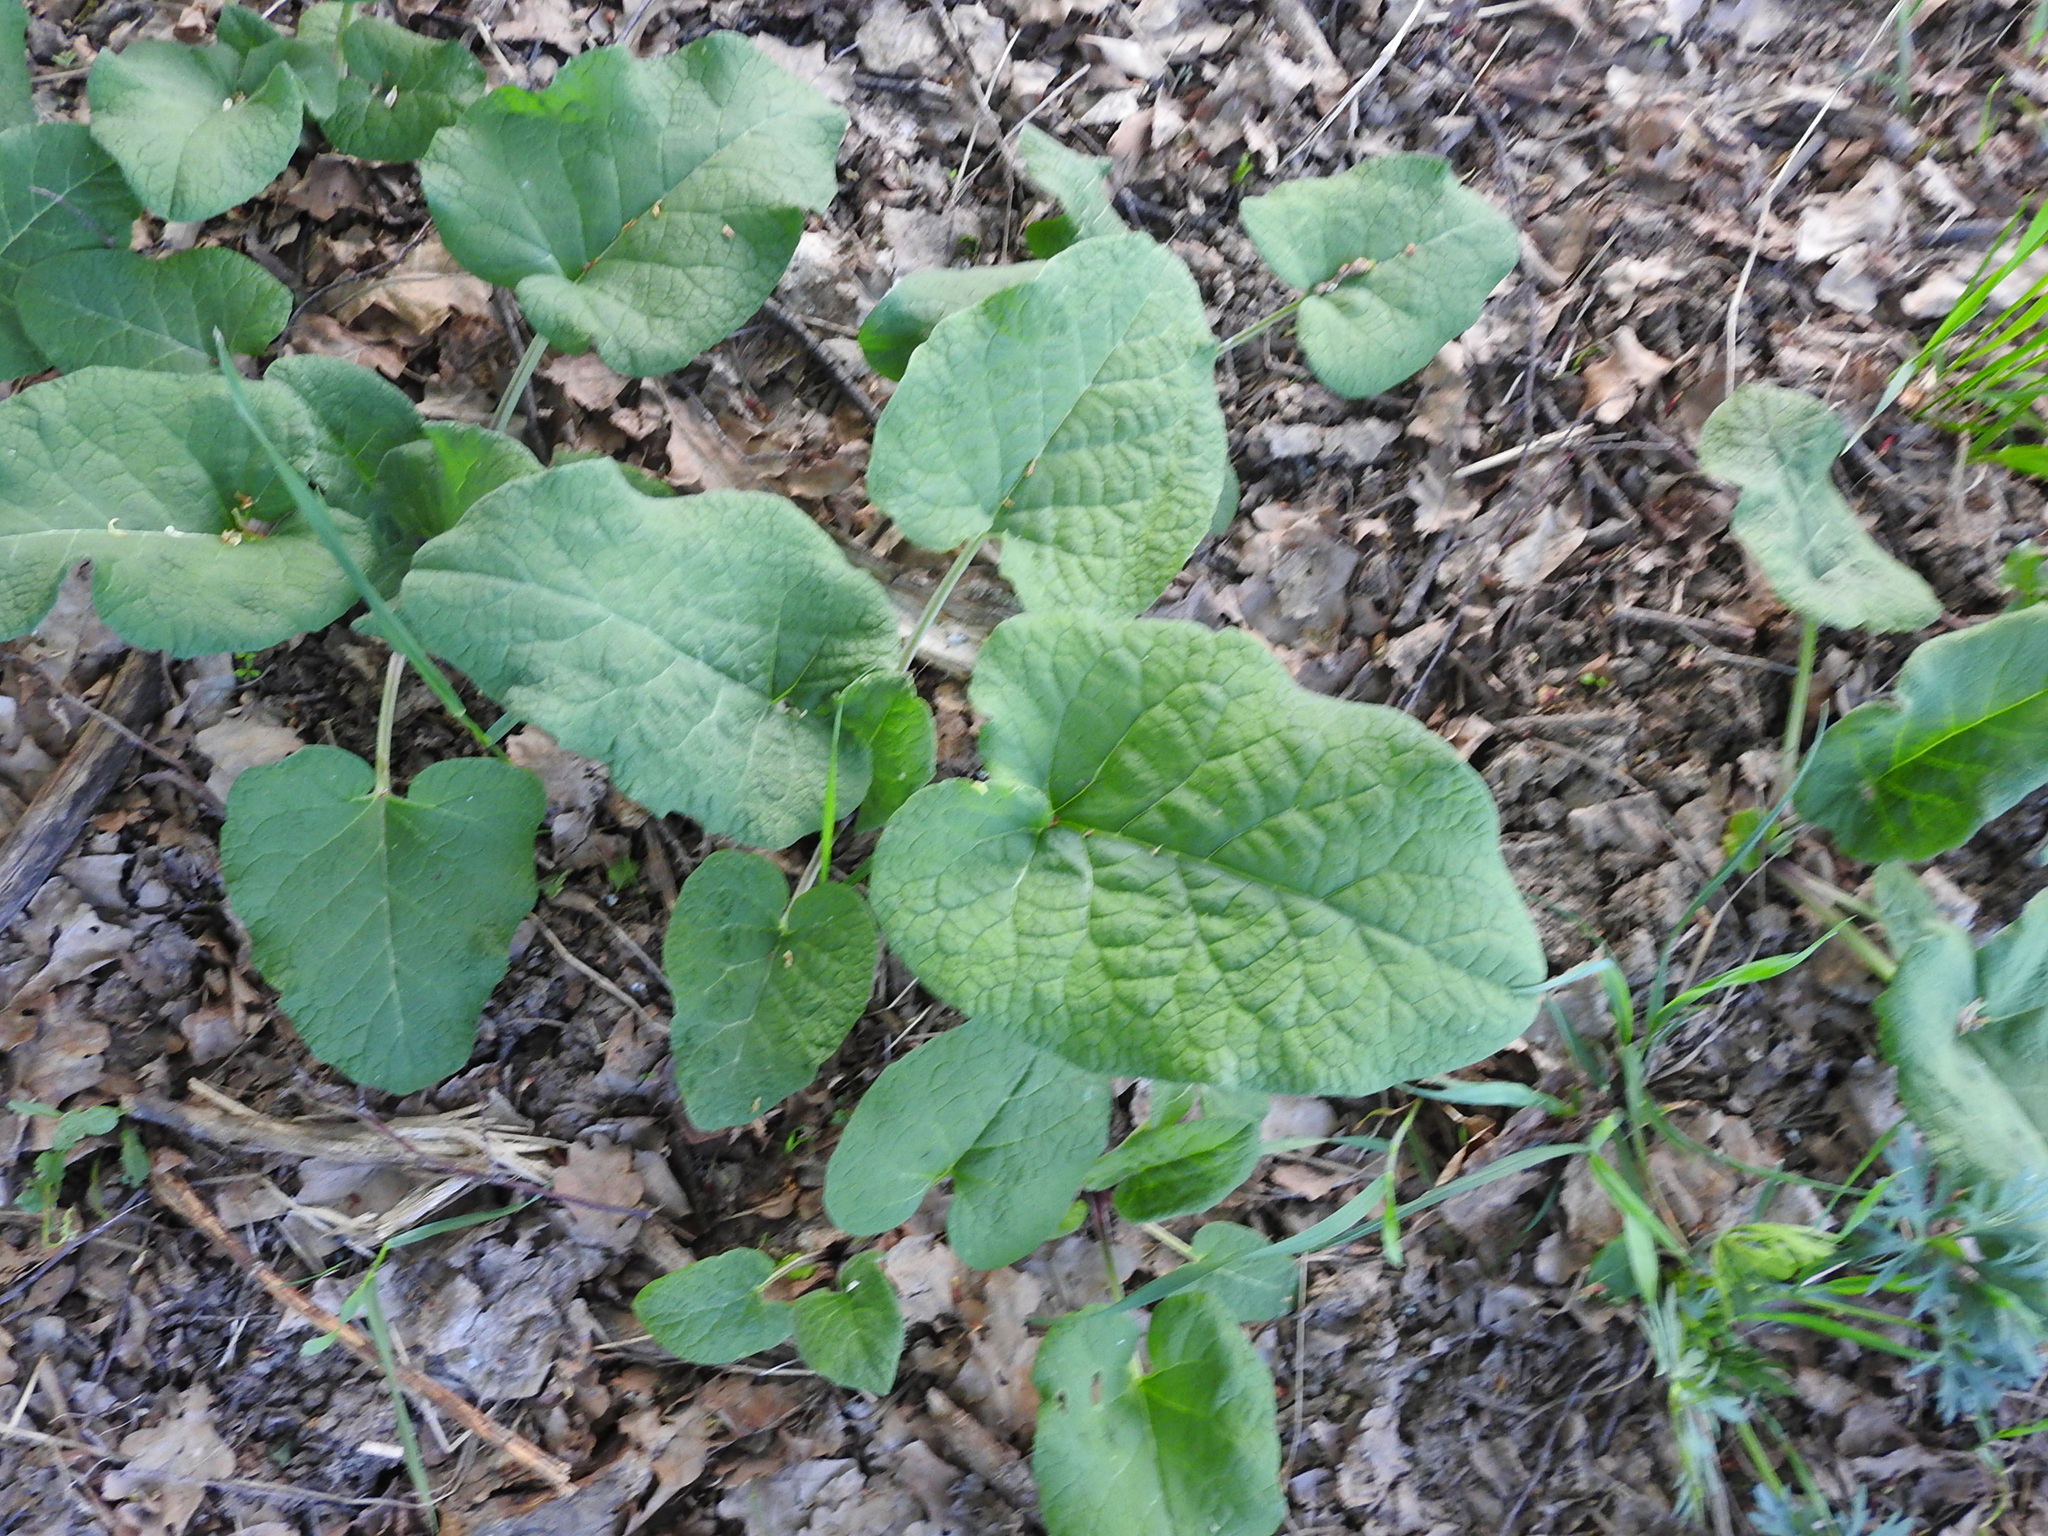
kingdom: Plantae
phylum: Tracheophyta
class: Magnoliopsida
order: Asterales
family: Asteraceae
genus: Arctium
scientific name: Arctium
